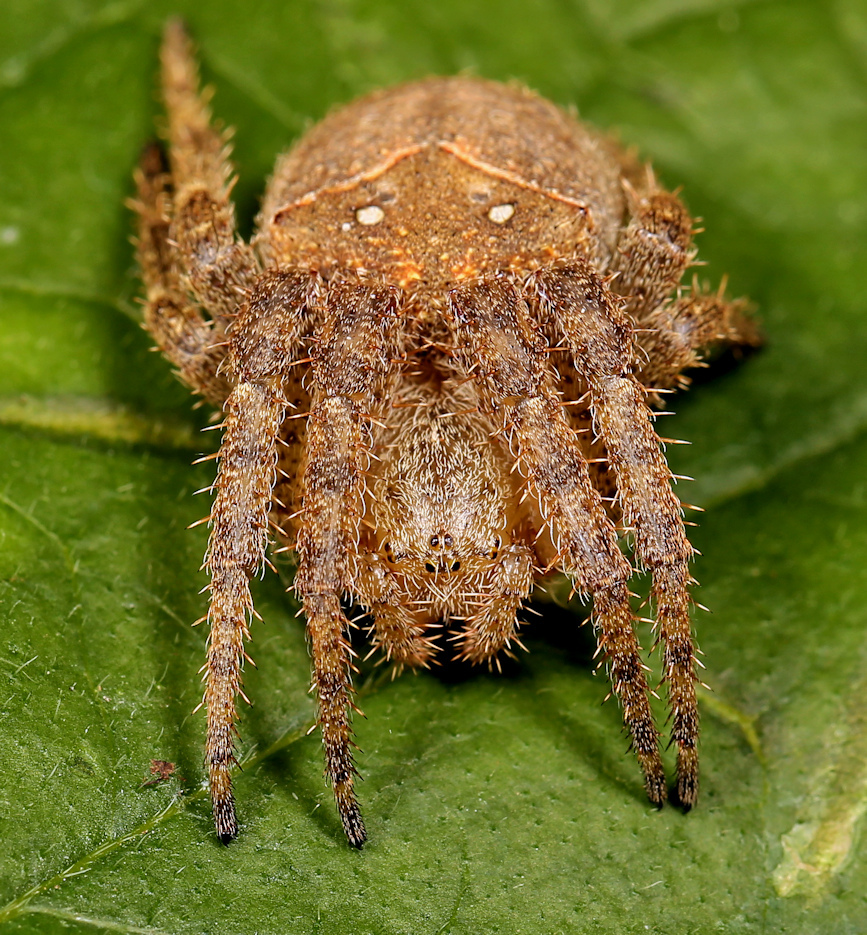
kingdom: Animalia
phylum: Arthropoda
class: Arachnida
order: Araneae
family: Araneidae
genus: Pararaneus
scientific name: Pararaneus cyrtoscapus
